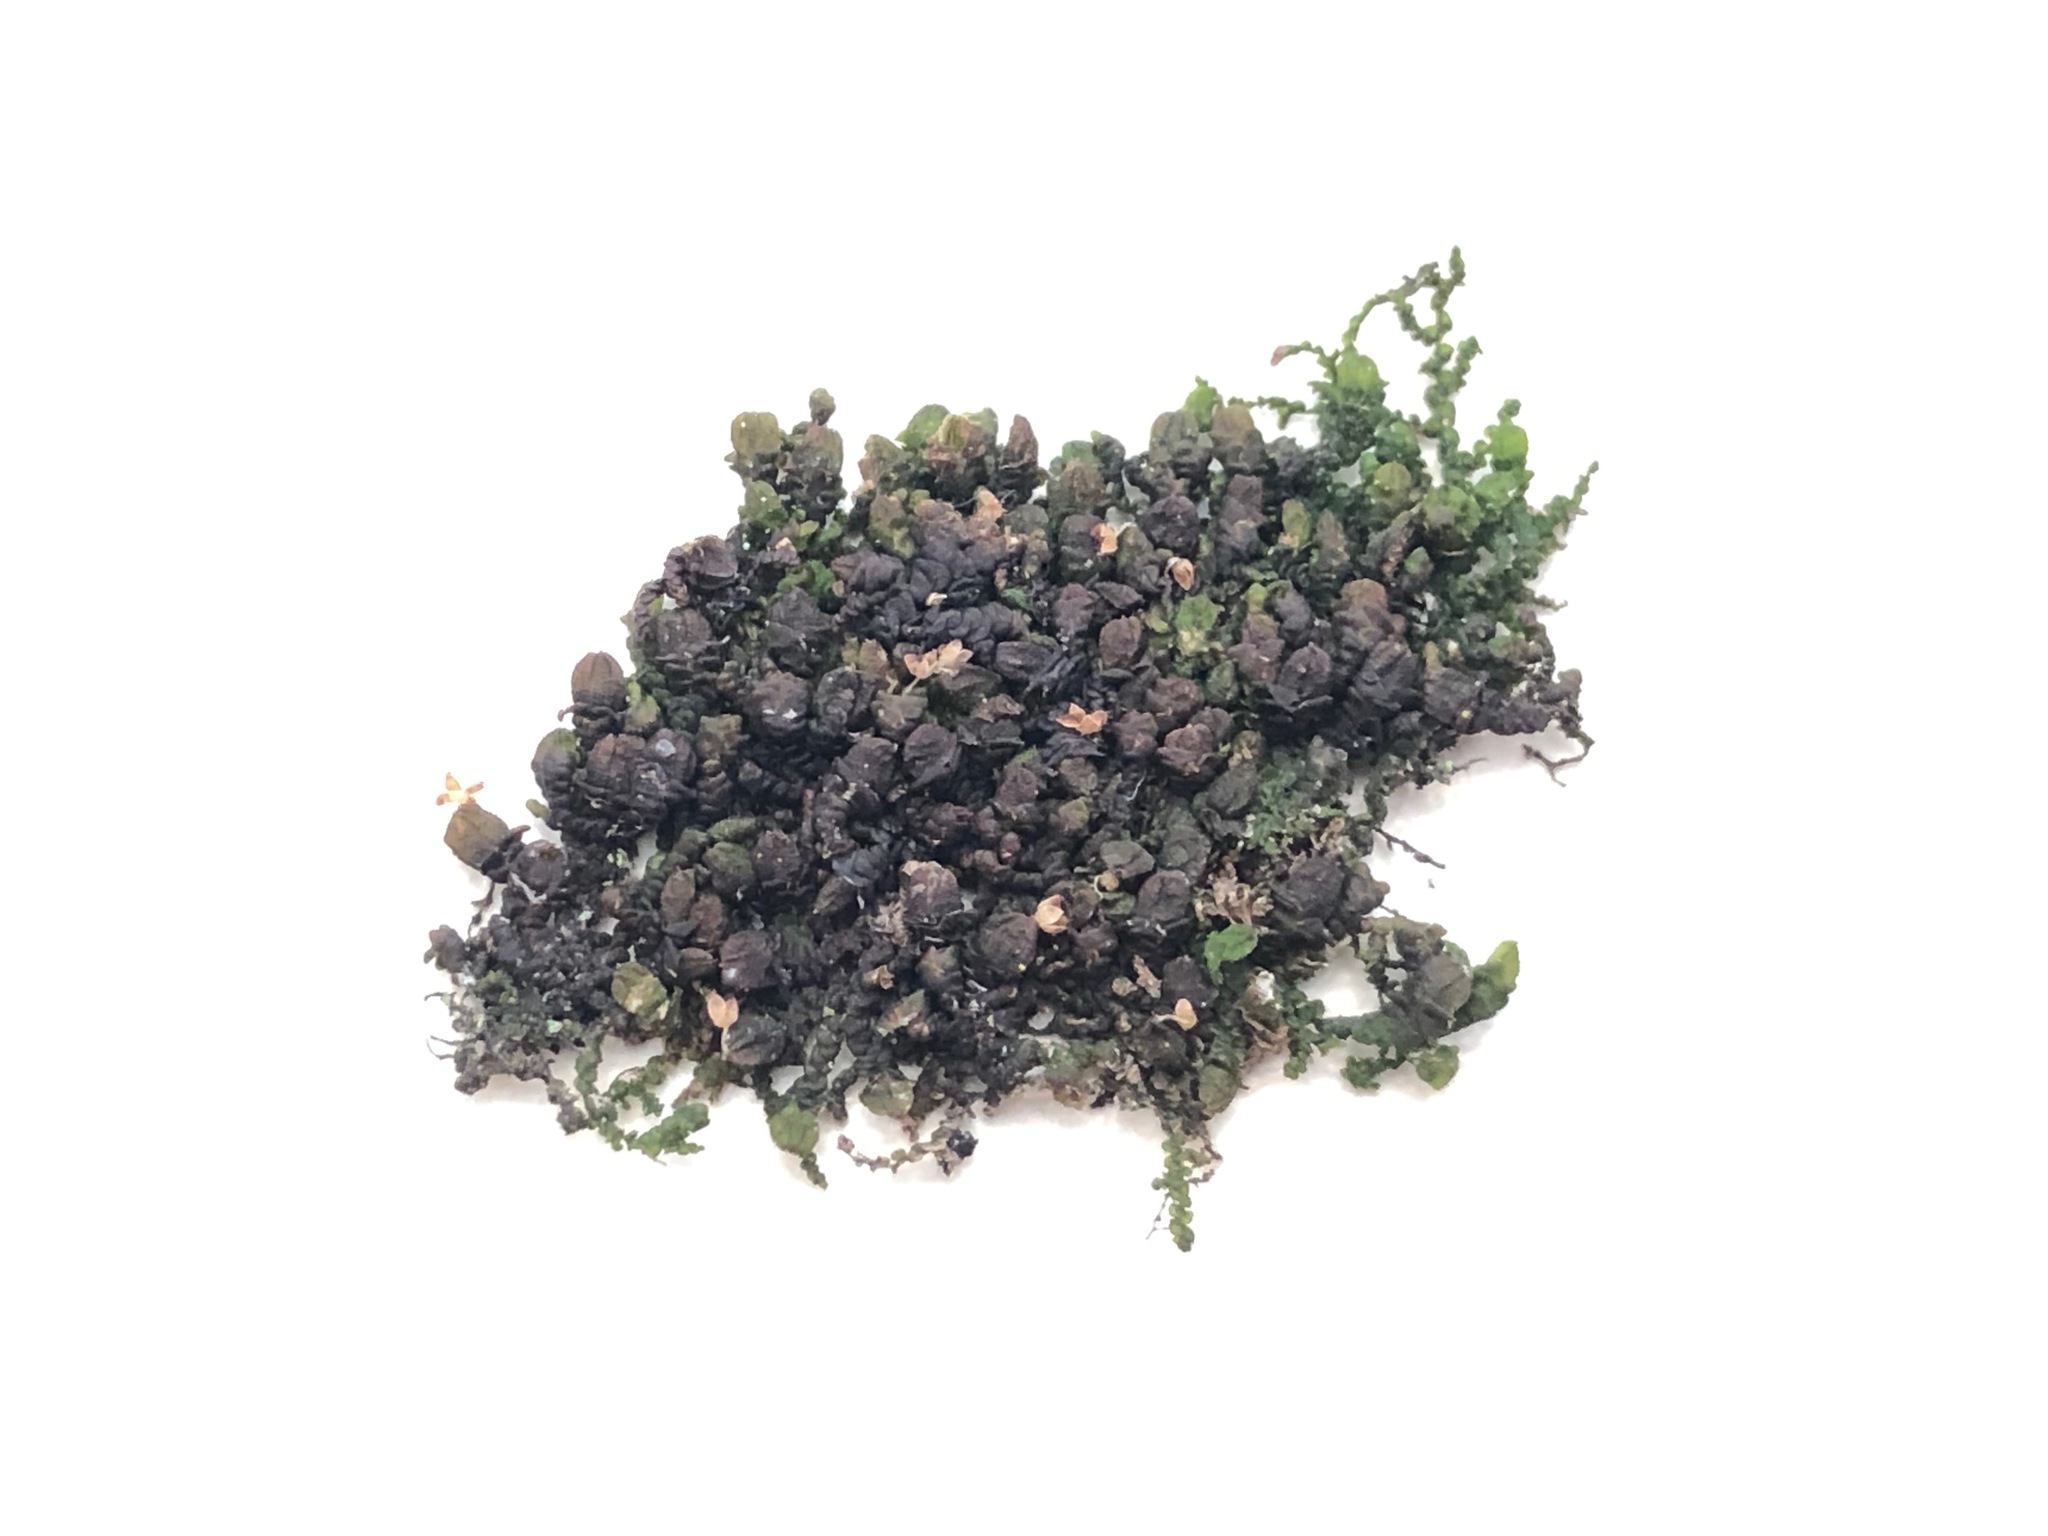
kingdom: Plantae
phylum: Marchantiophyta
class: Jungermanniopsida
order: Porellales
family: Frullaniaceae
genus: Frullania
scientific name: Frullania dilatata
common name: Dilated scalewort
